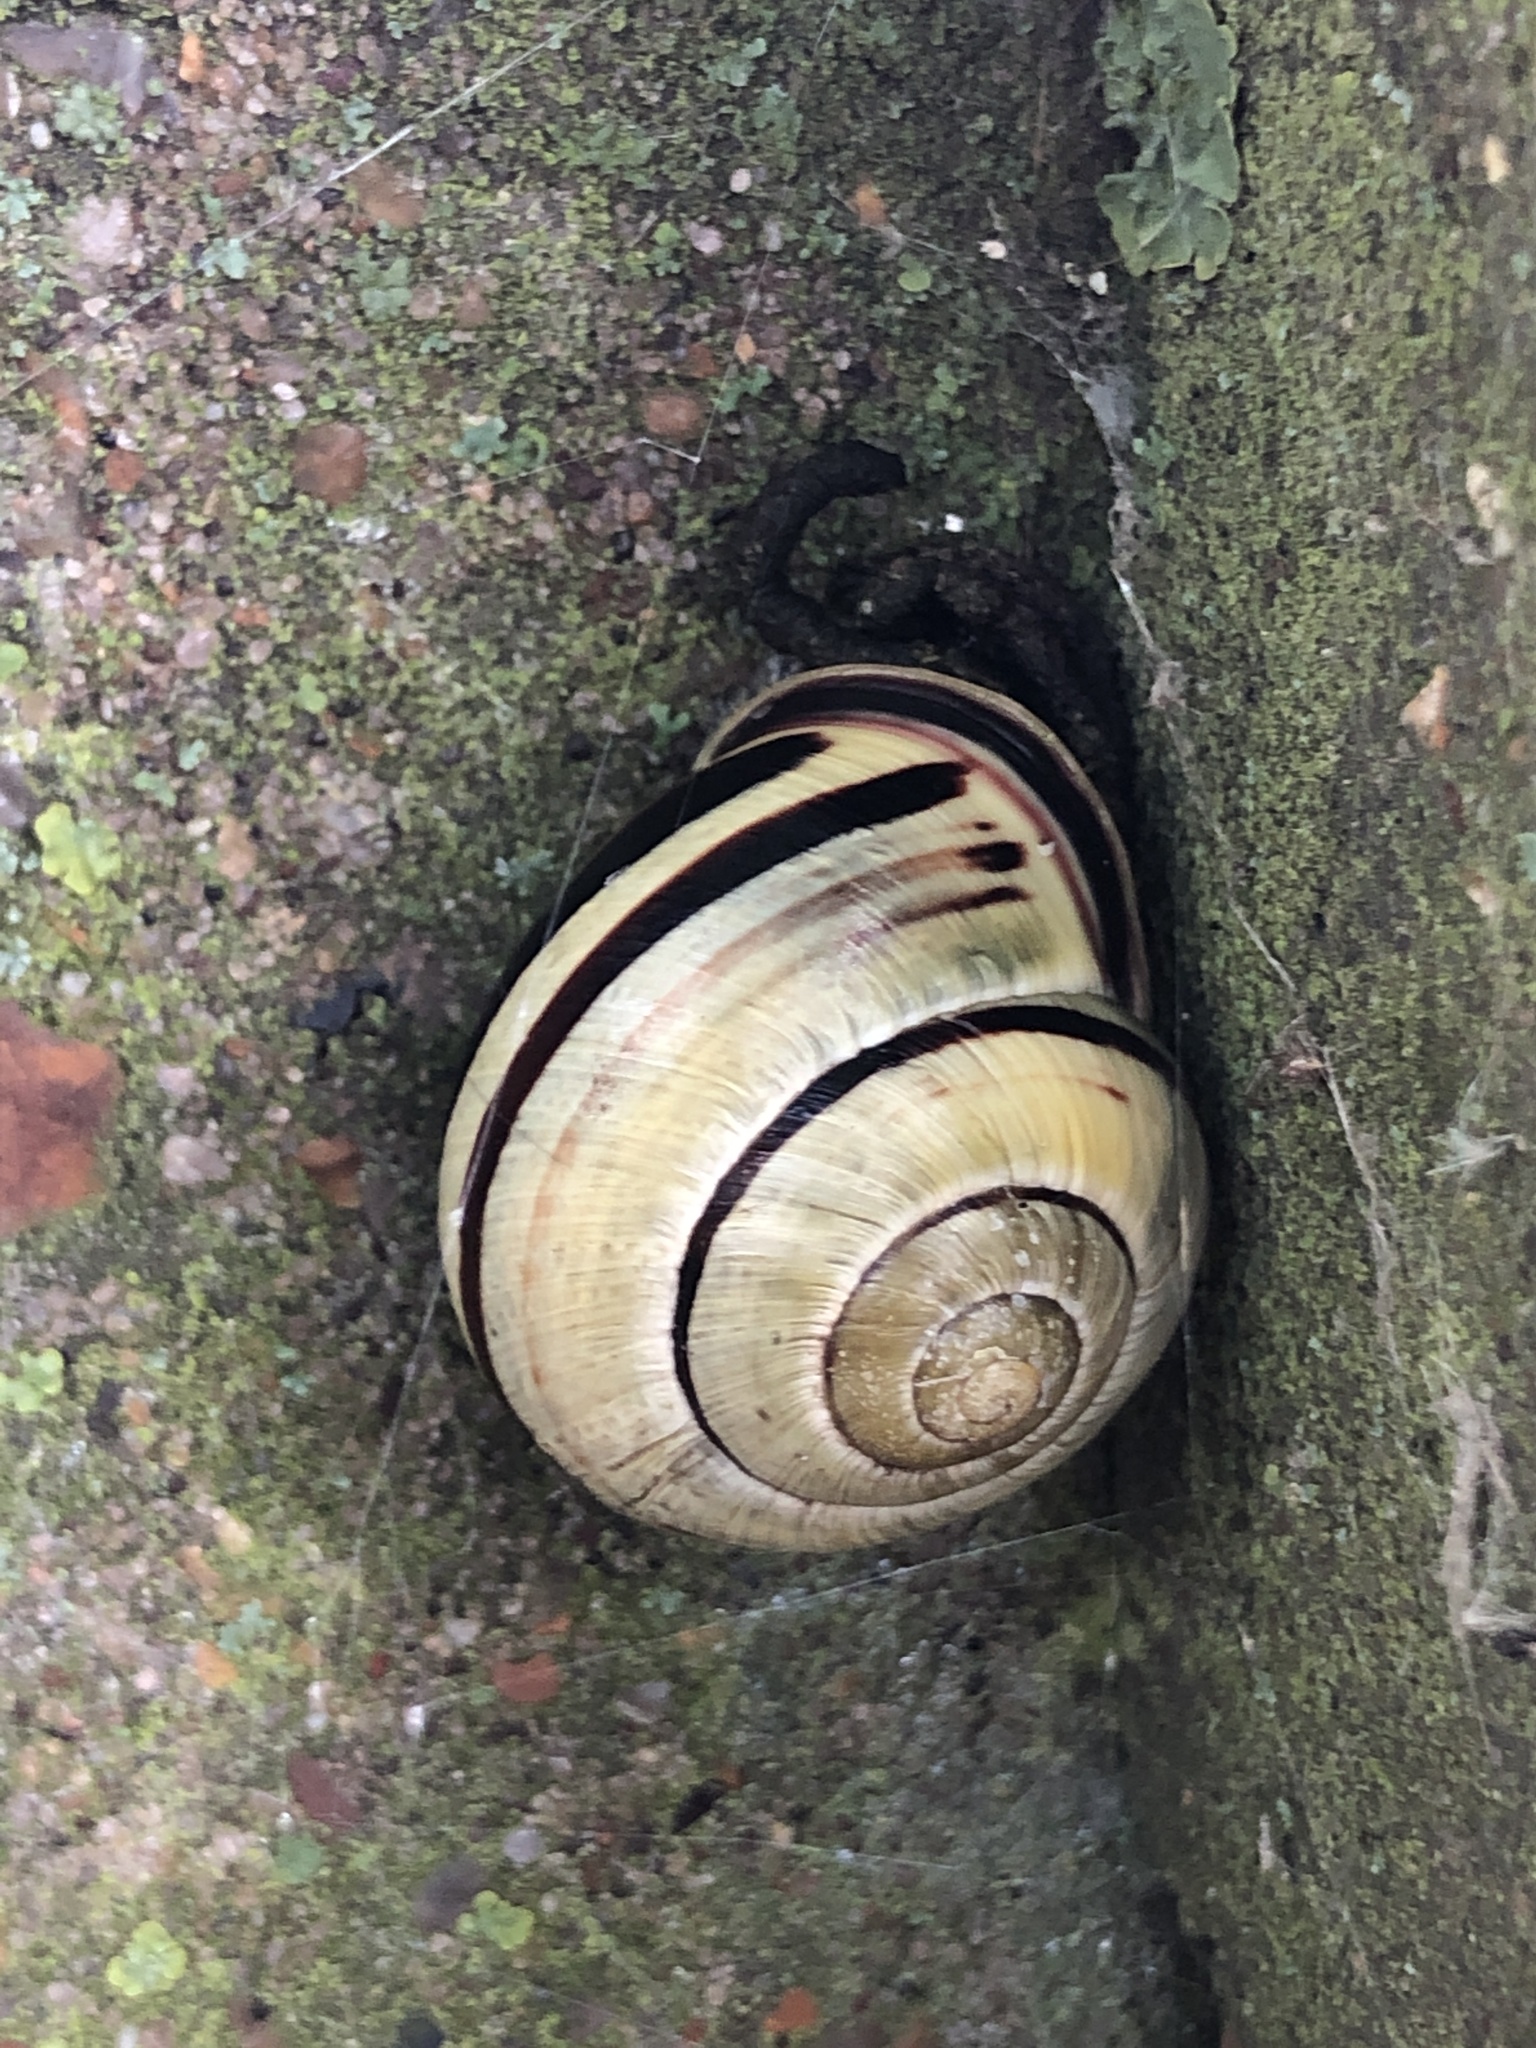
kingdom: Animalia
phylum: Mollusca
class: Gastropoda
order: Stylommatophora
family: Helicidae
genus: Cepaea
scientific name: Cepaea nemoralis
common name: Grovesnail
